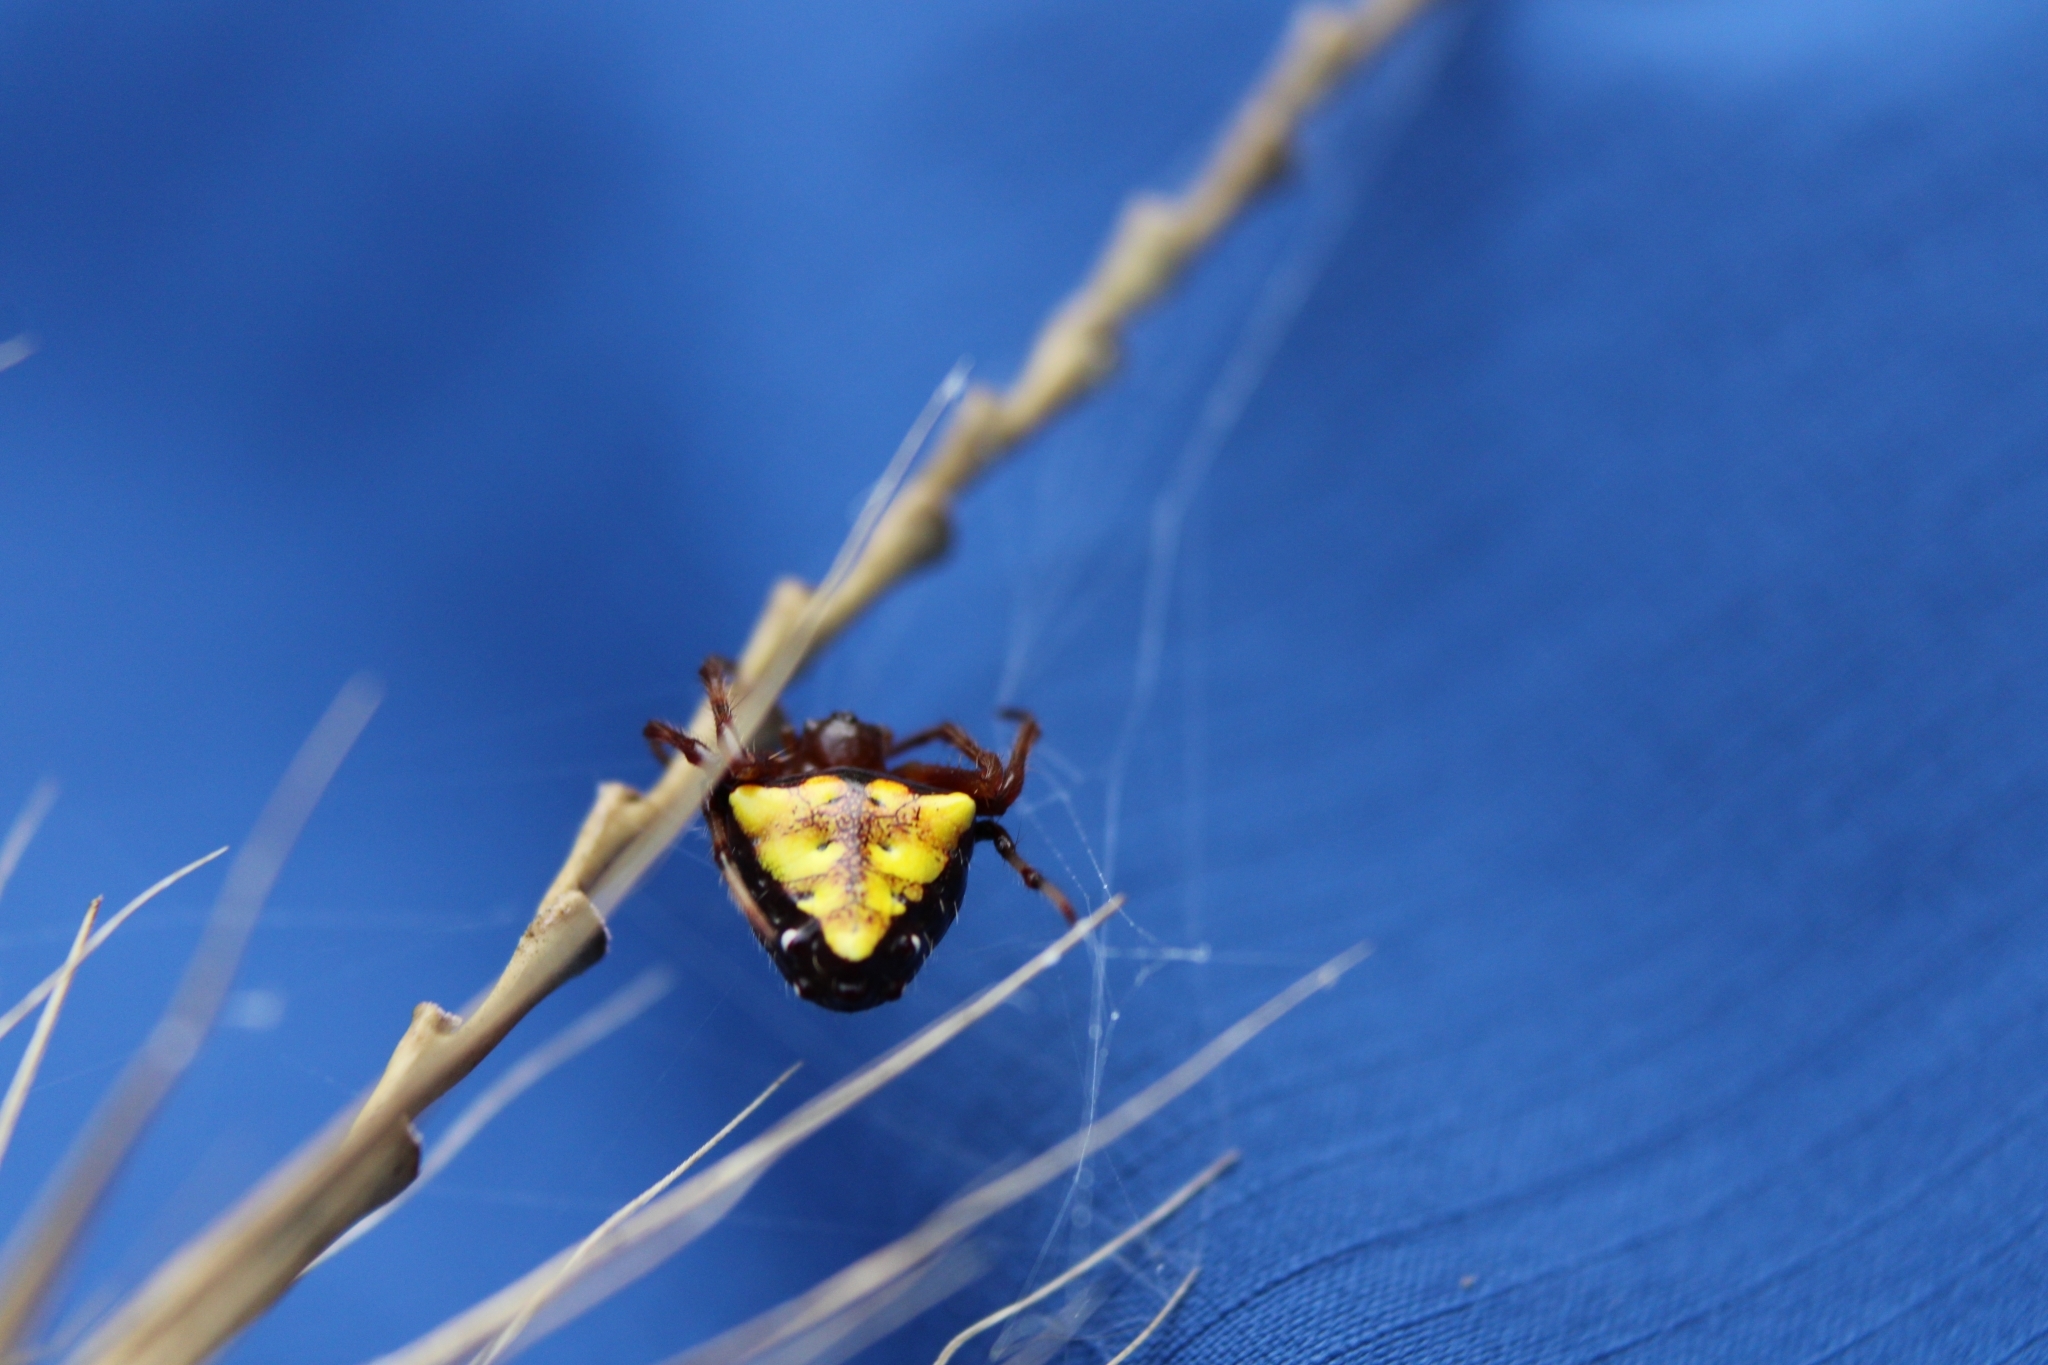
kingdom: Animalia
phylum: Arthropoda
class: Arachnida
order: Araneae
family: Araneidae
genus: Verrucosa
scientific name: Verrucosa arenata
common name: Orb weavers
